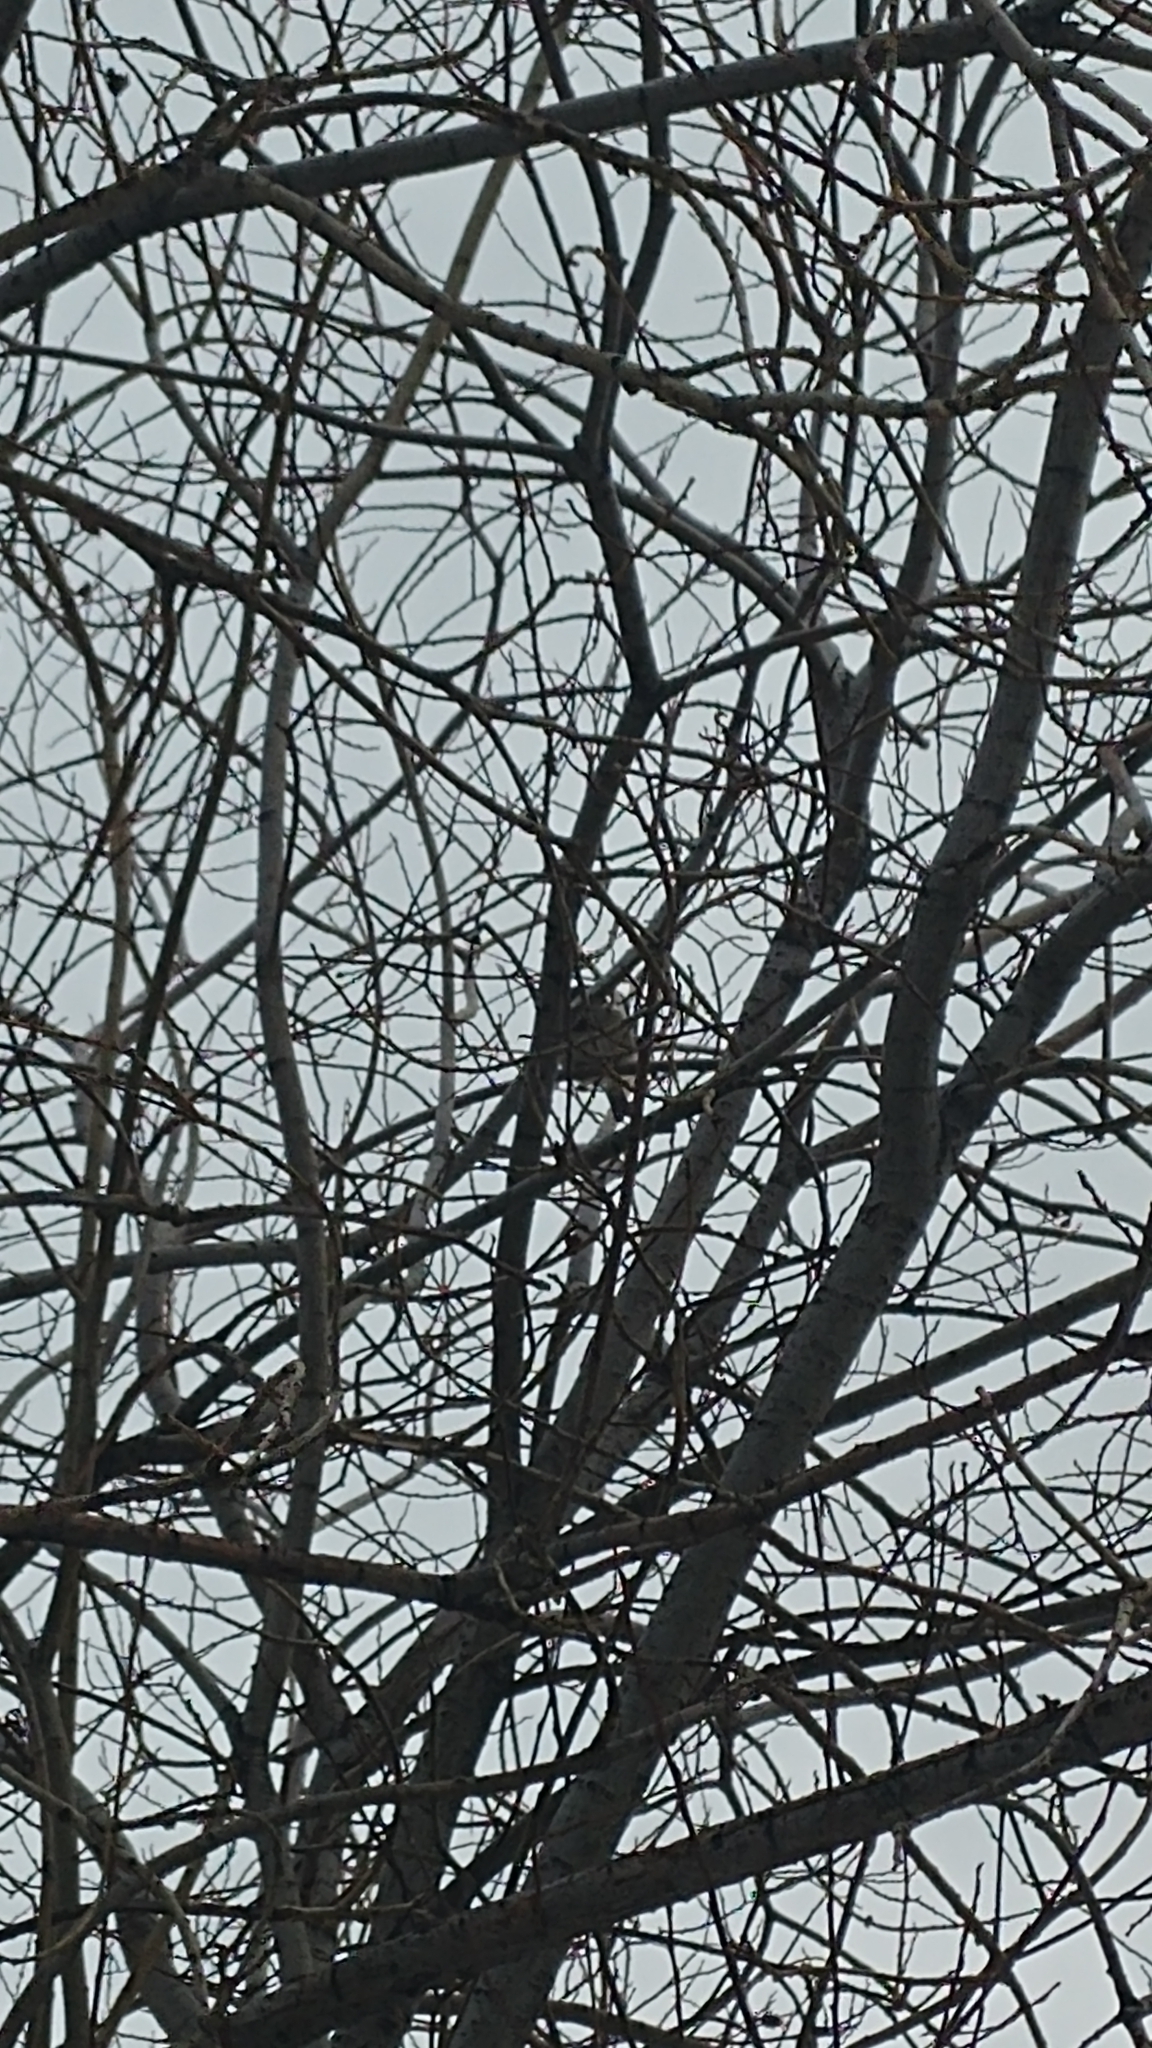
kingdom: Animalia
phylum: Chordata
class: Aves
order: Passeriformes
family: Passeridae
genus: Passer
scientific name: Passer domesticus
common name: House sparrow
